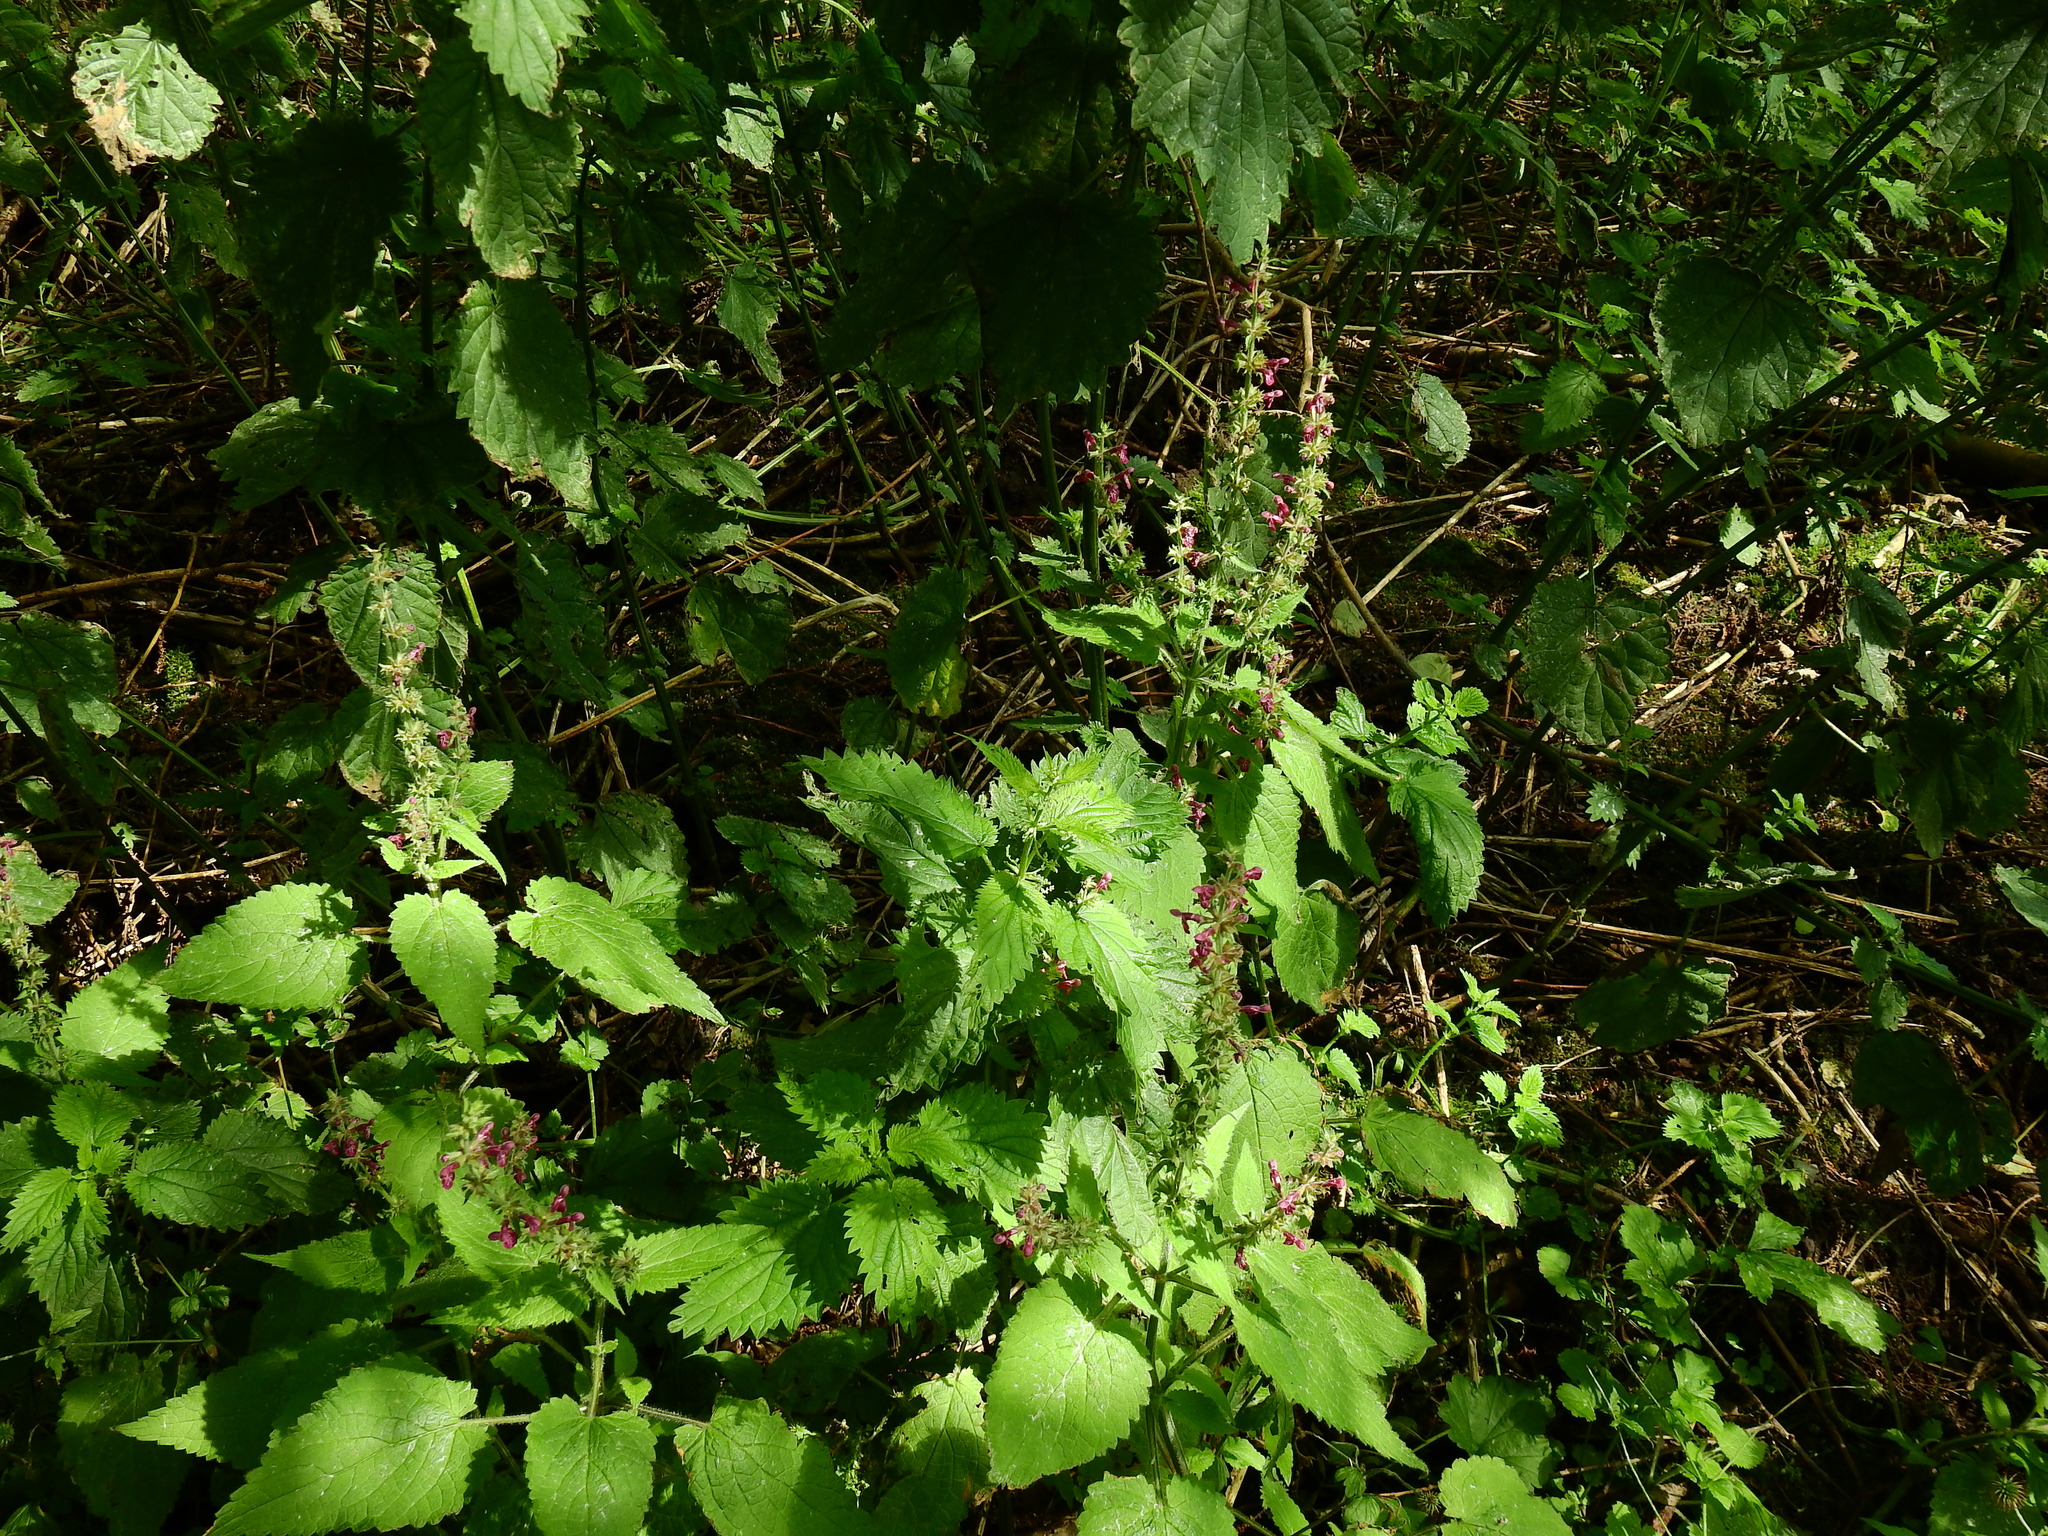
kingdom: Plantae
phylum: Tracheophyta
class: Magnoliopsida
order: Lamiales
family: Lamiaceae
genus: Stachys
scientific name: Stachys sylvatica
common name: Hedge woundwort
